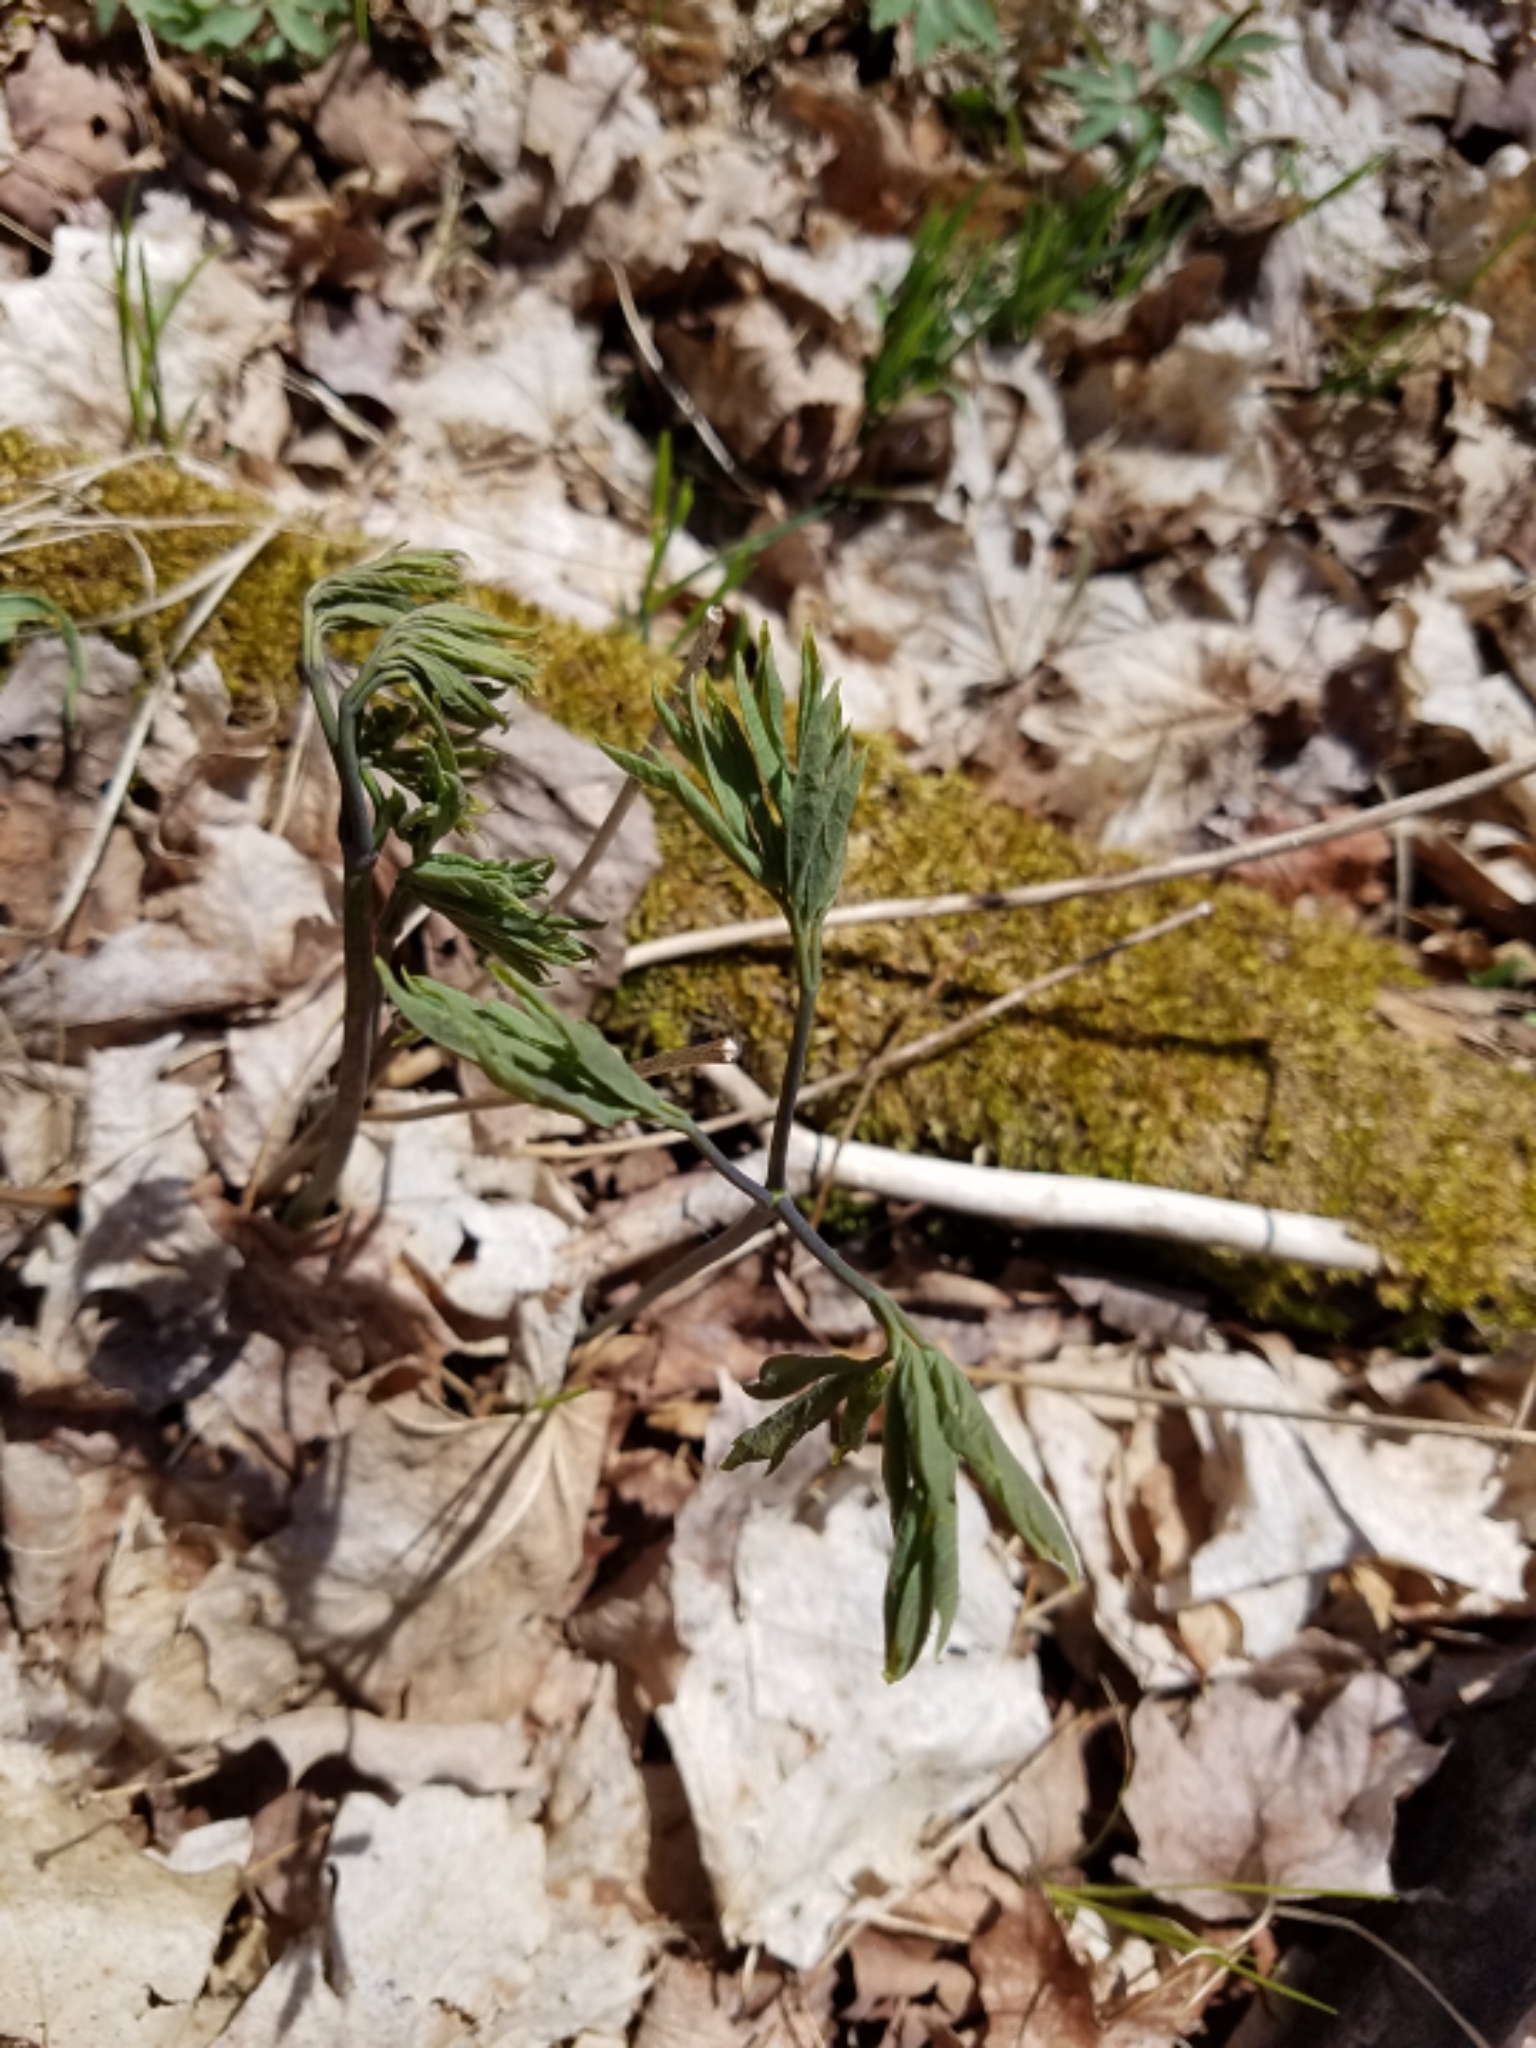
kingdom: Plantae
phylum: Tracheophyta
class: Magnoliopsida
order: Ranunculales
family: Berberidaceae
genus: Caulophyllum
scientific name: Caulophyllum thalictroides
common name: Blue cohosh
